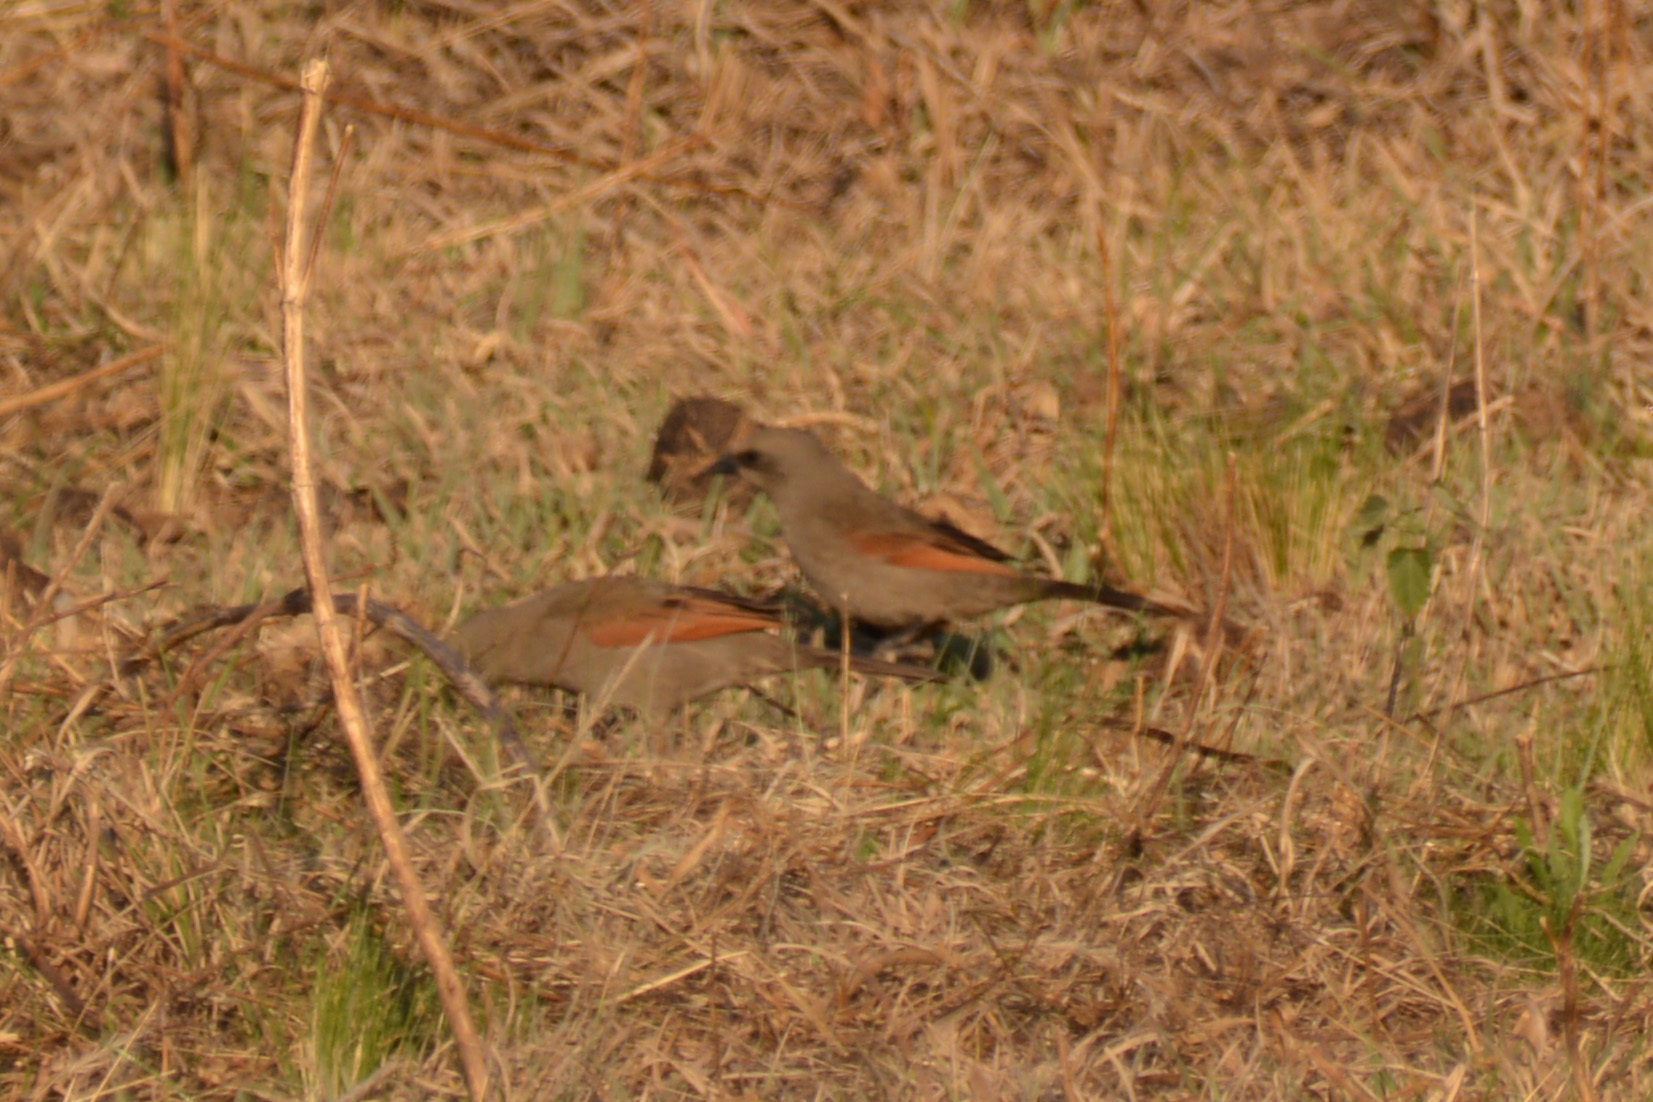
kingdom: Animalia
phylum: Chordata
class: Aves
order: Passeriformes
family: Icteridae
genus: Agelaioides
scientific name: Agelaioides badius
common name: Baywing
